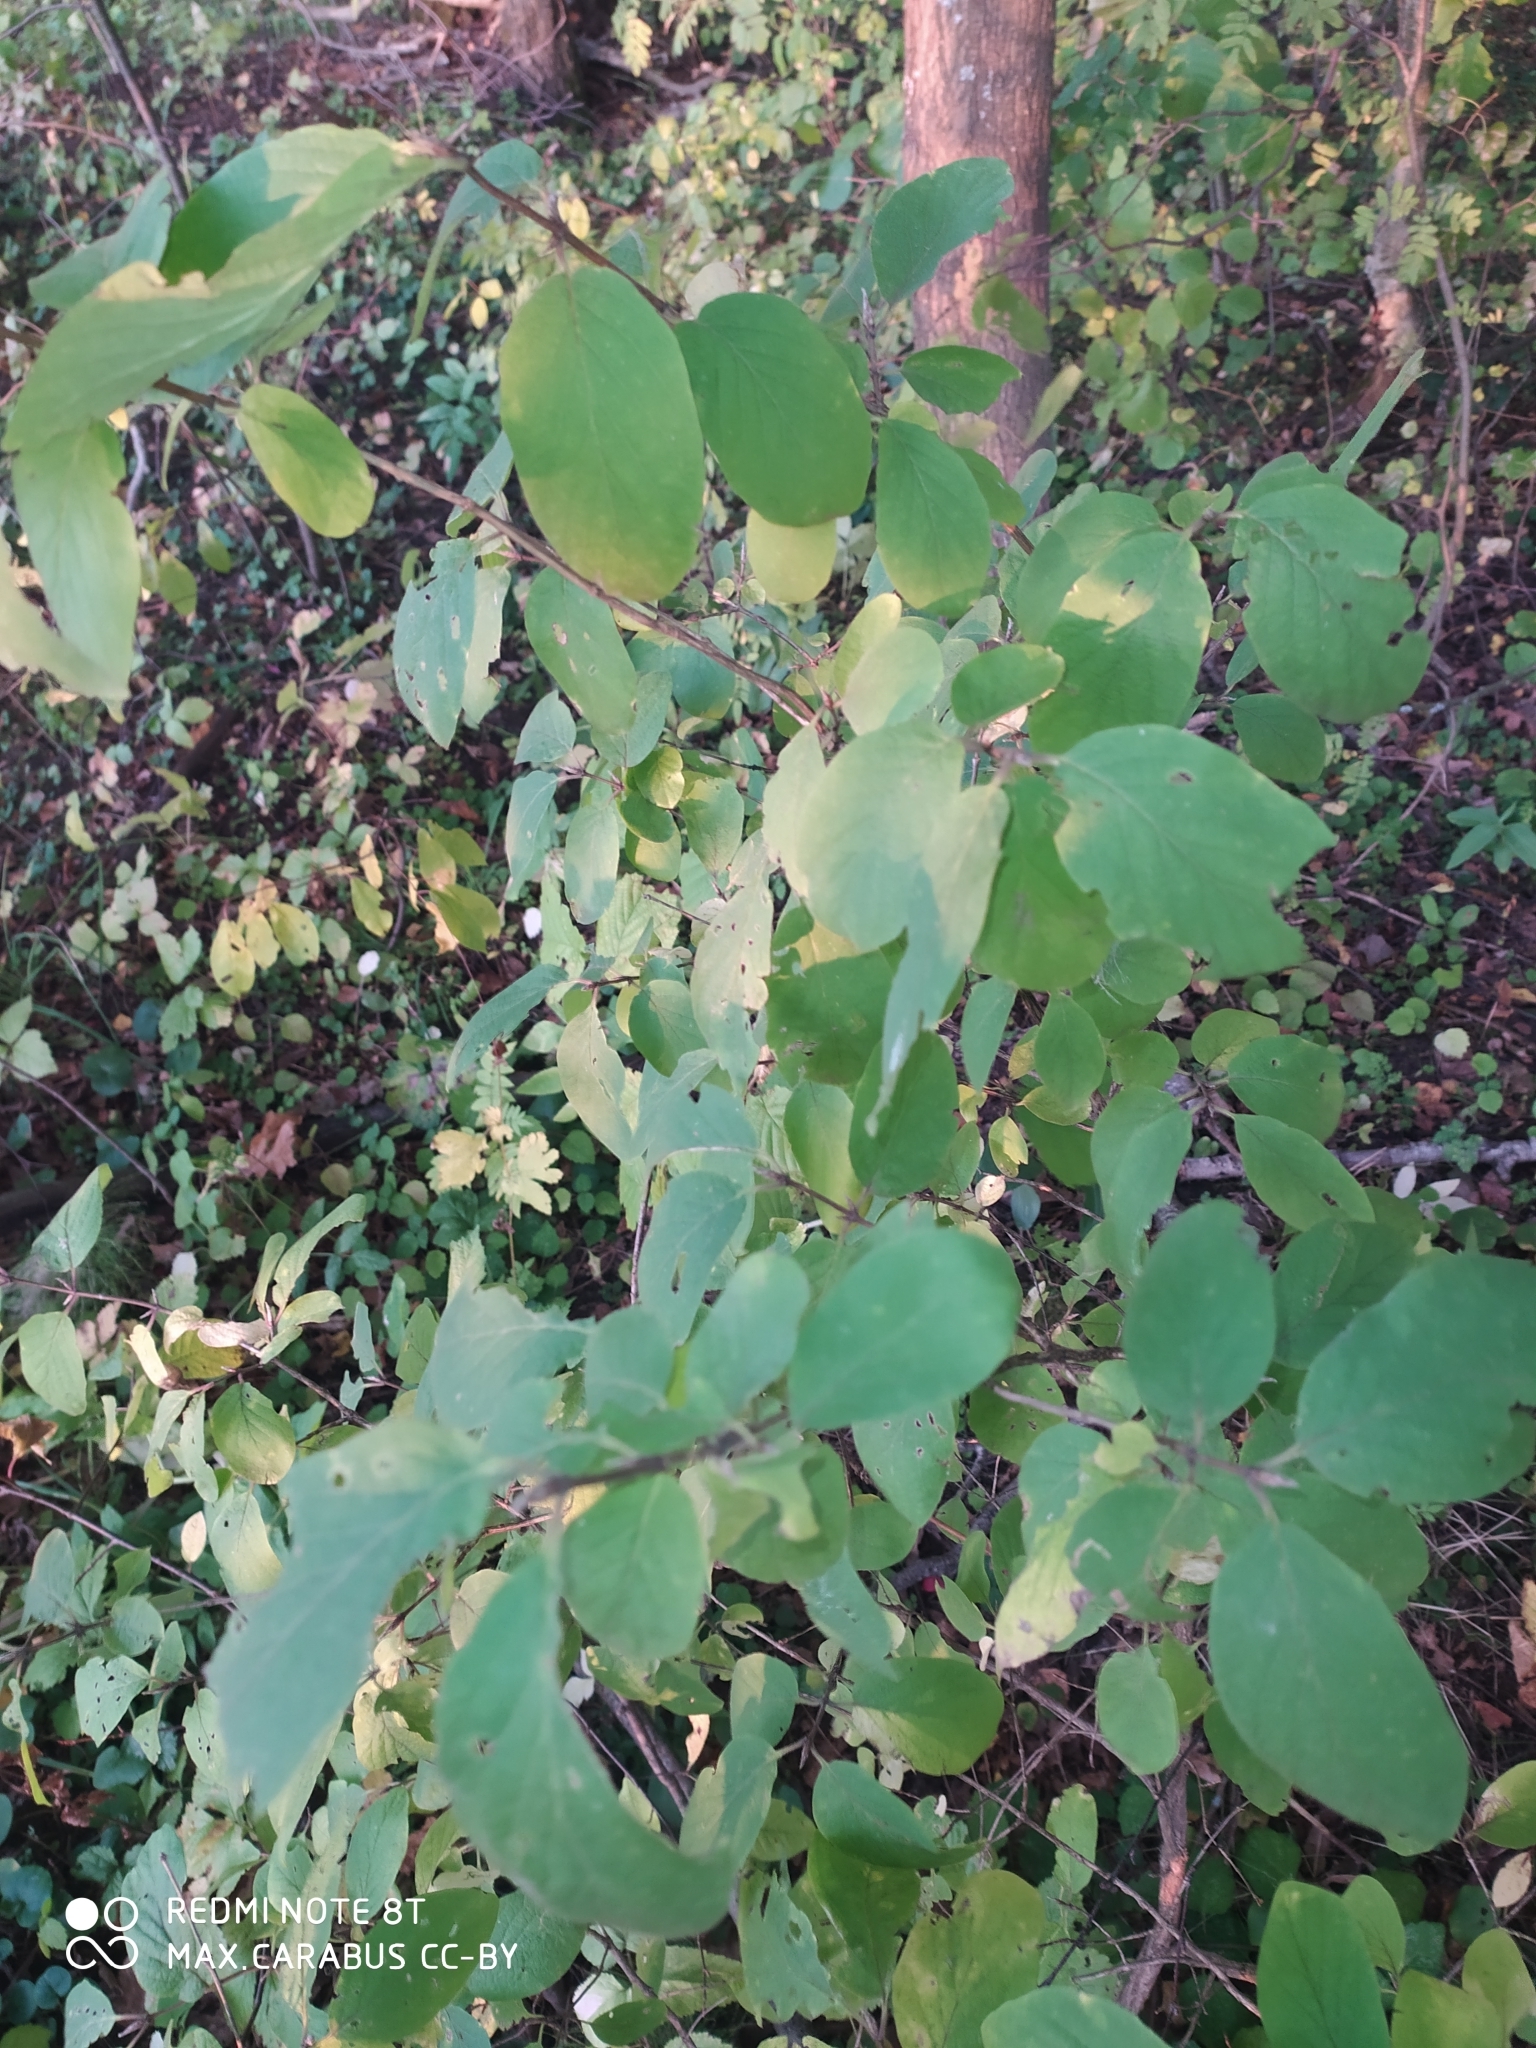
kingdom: Plantae
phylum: Tracheophyta
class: Magnoliopsida
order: Dipsacales
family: Caprifoliaceae
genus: Lonicera
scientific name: Lonicera xylosteum
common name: Fly honeysuckle
